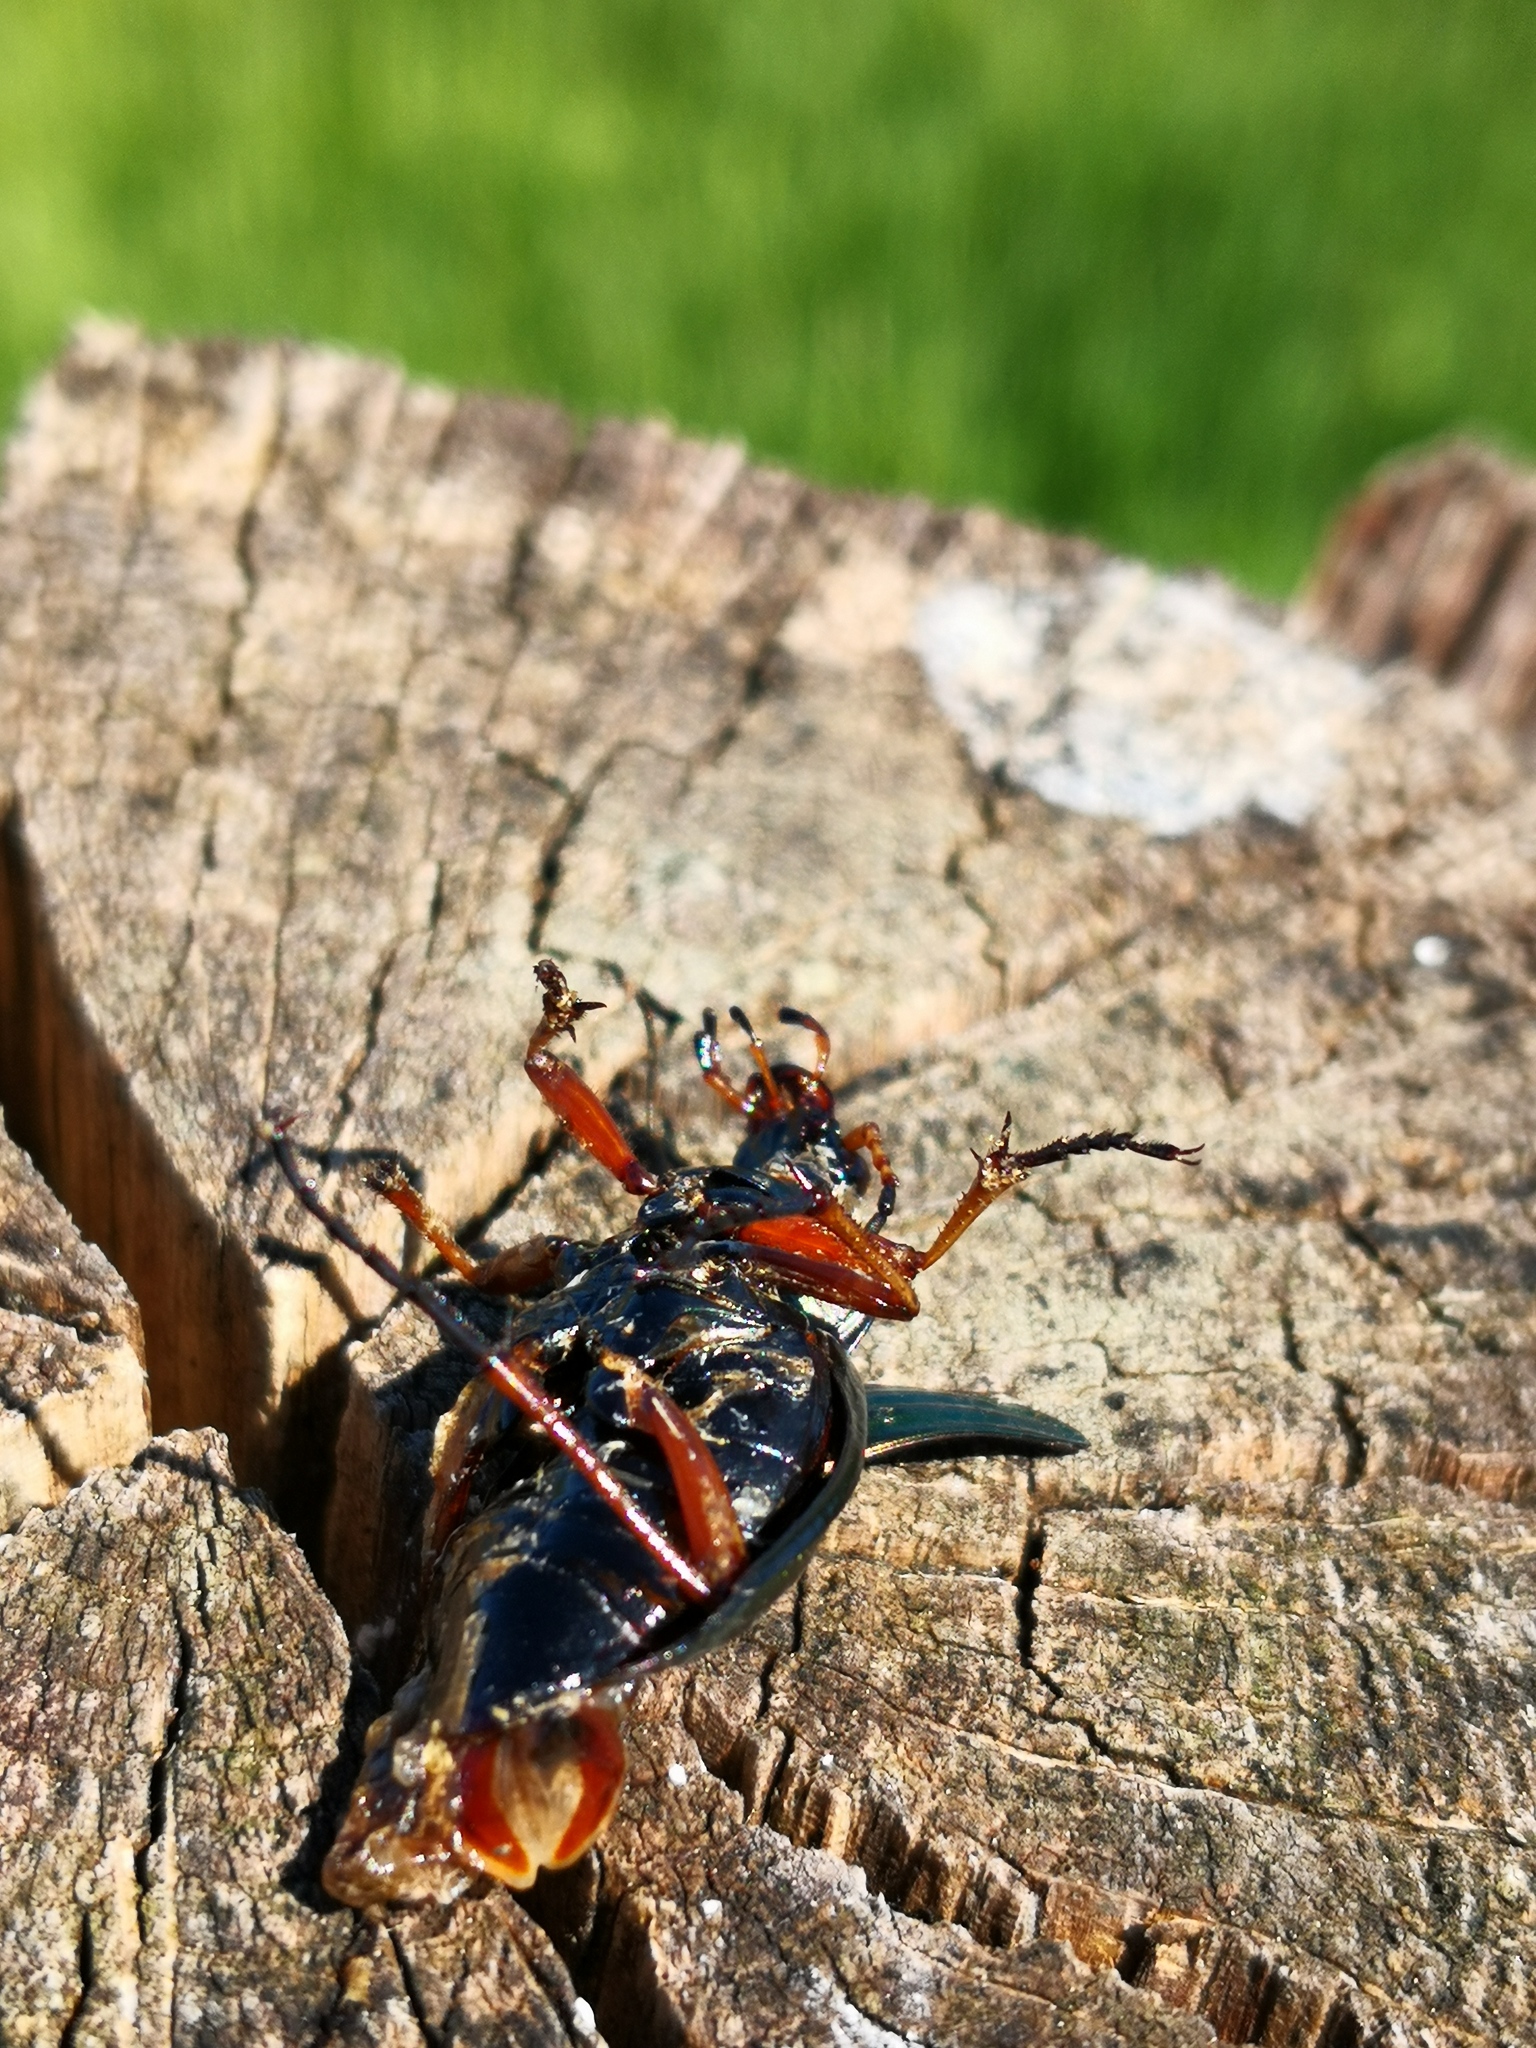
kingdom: Animalia
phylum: Arthropoda
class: Insecta
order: Coleoptera
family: Carabidae
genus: Carabus
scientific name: Carabus auratus
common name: Golden ground beetle
